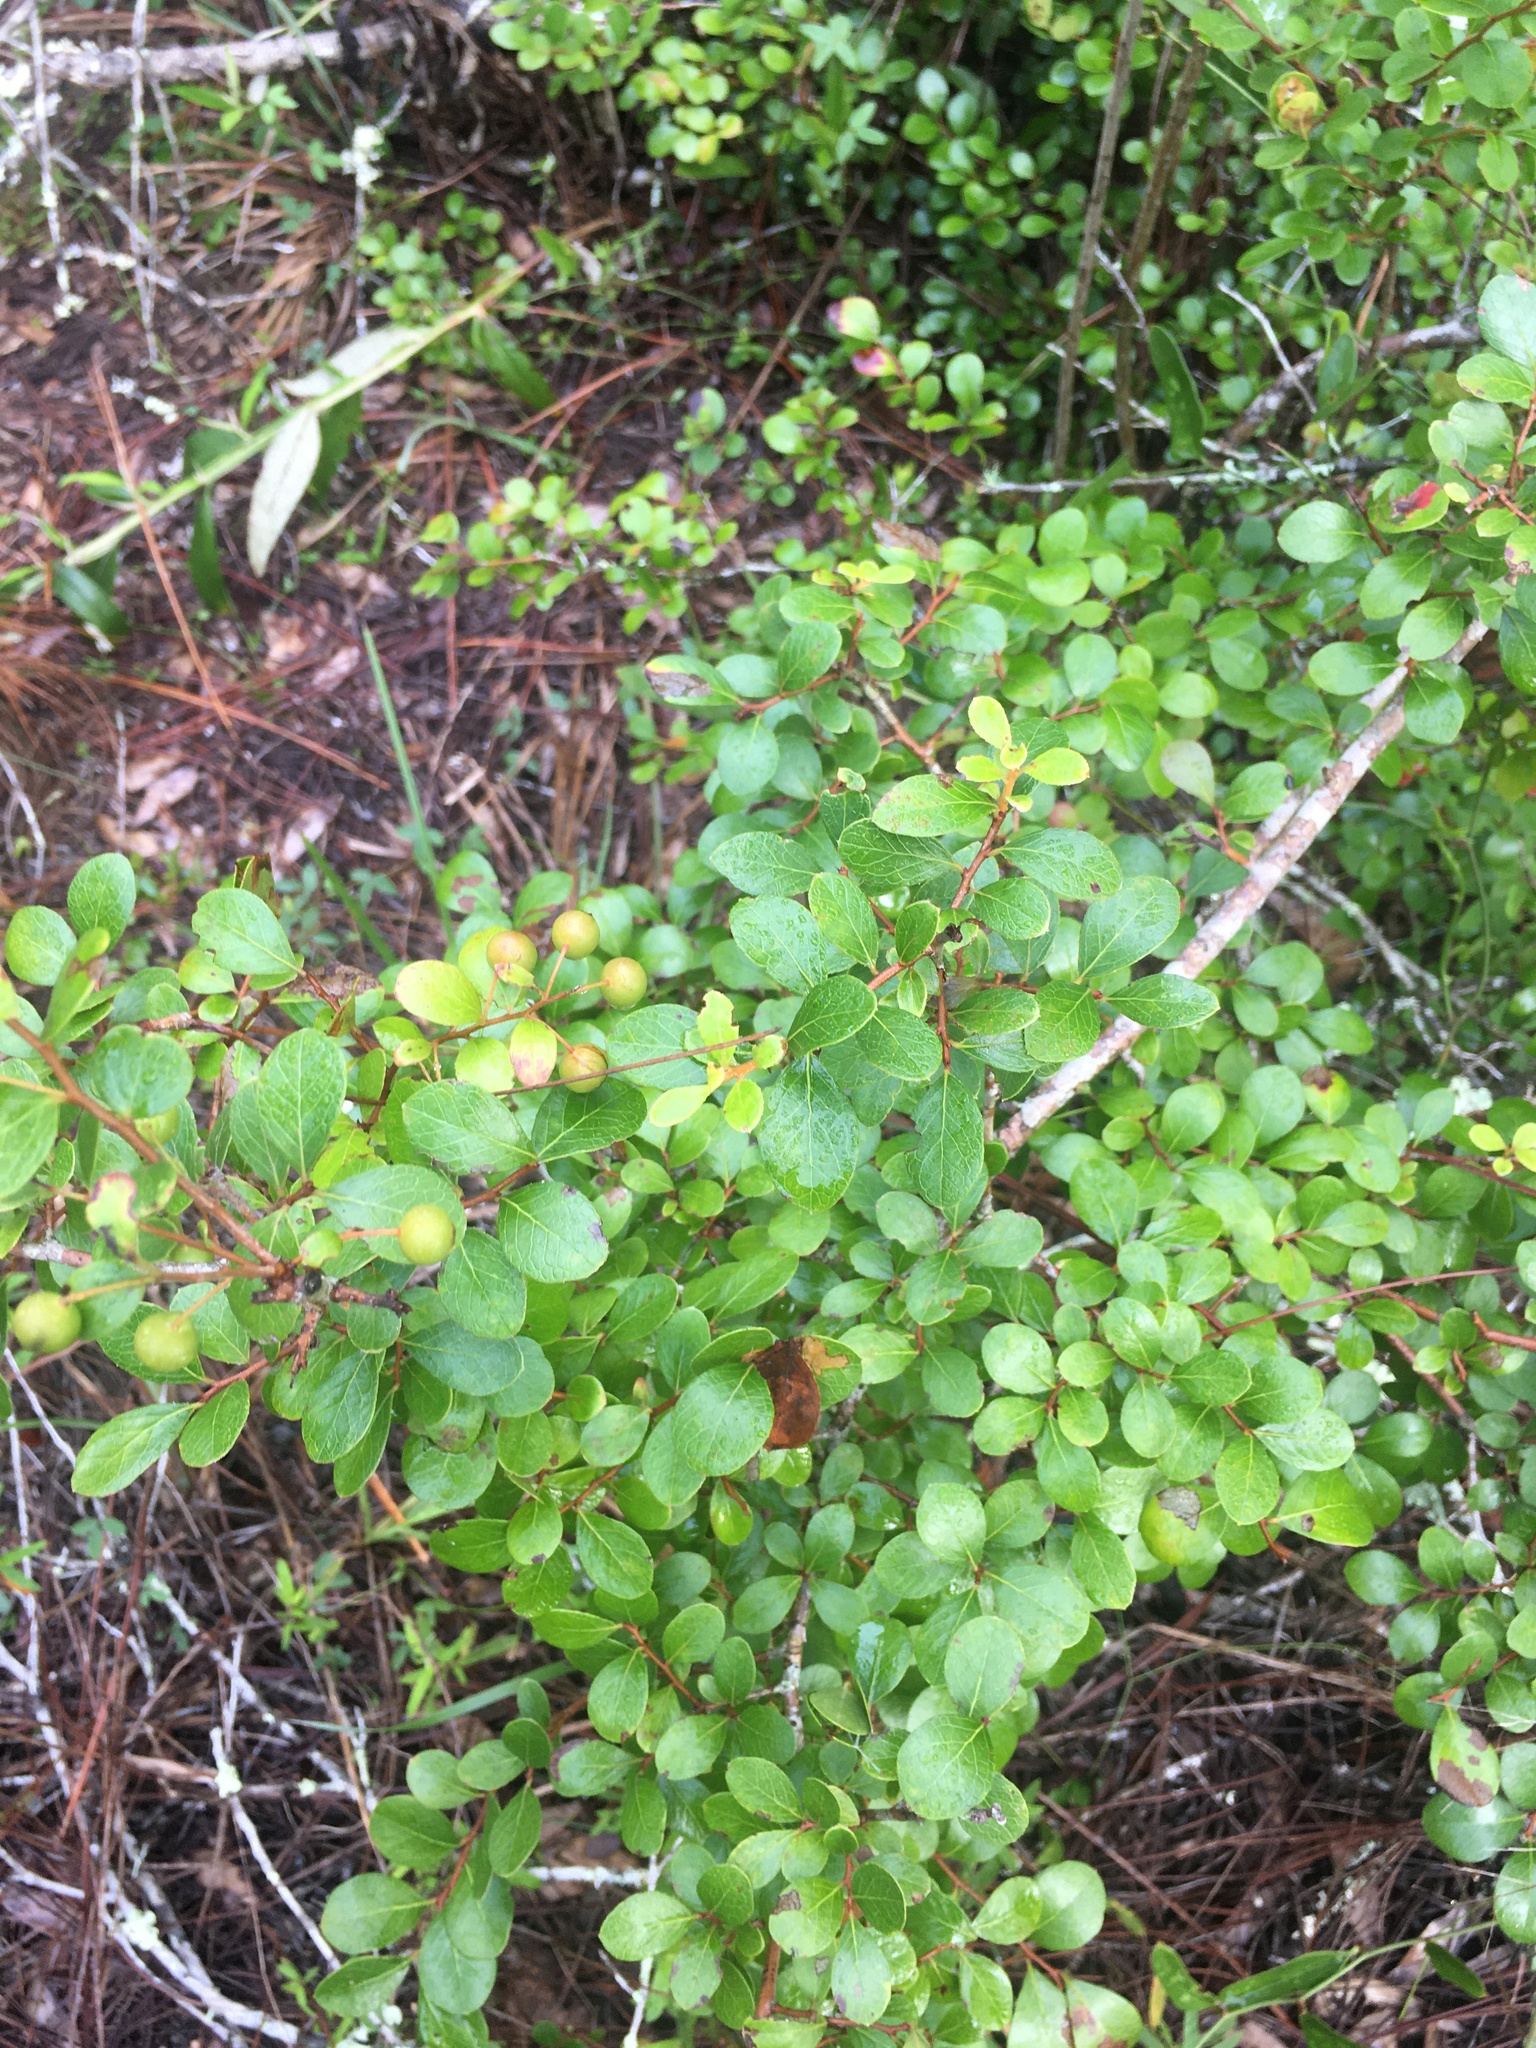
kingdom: Plantae
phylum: Tracheophyta
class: Magnoliopsida
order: Ericales
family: Ericaceae
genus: Vaccinium
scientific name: Vaccinium arboreum
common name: Farkleberry
